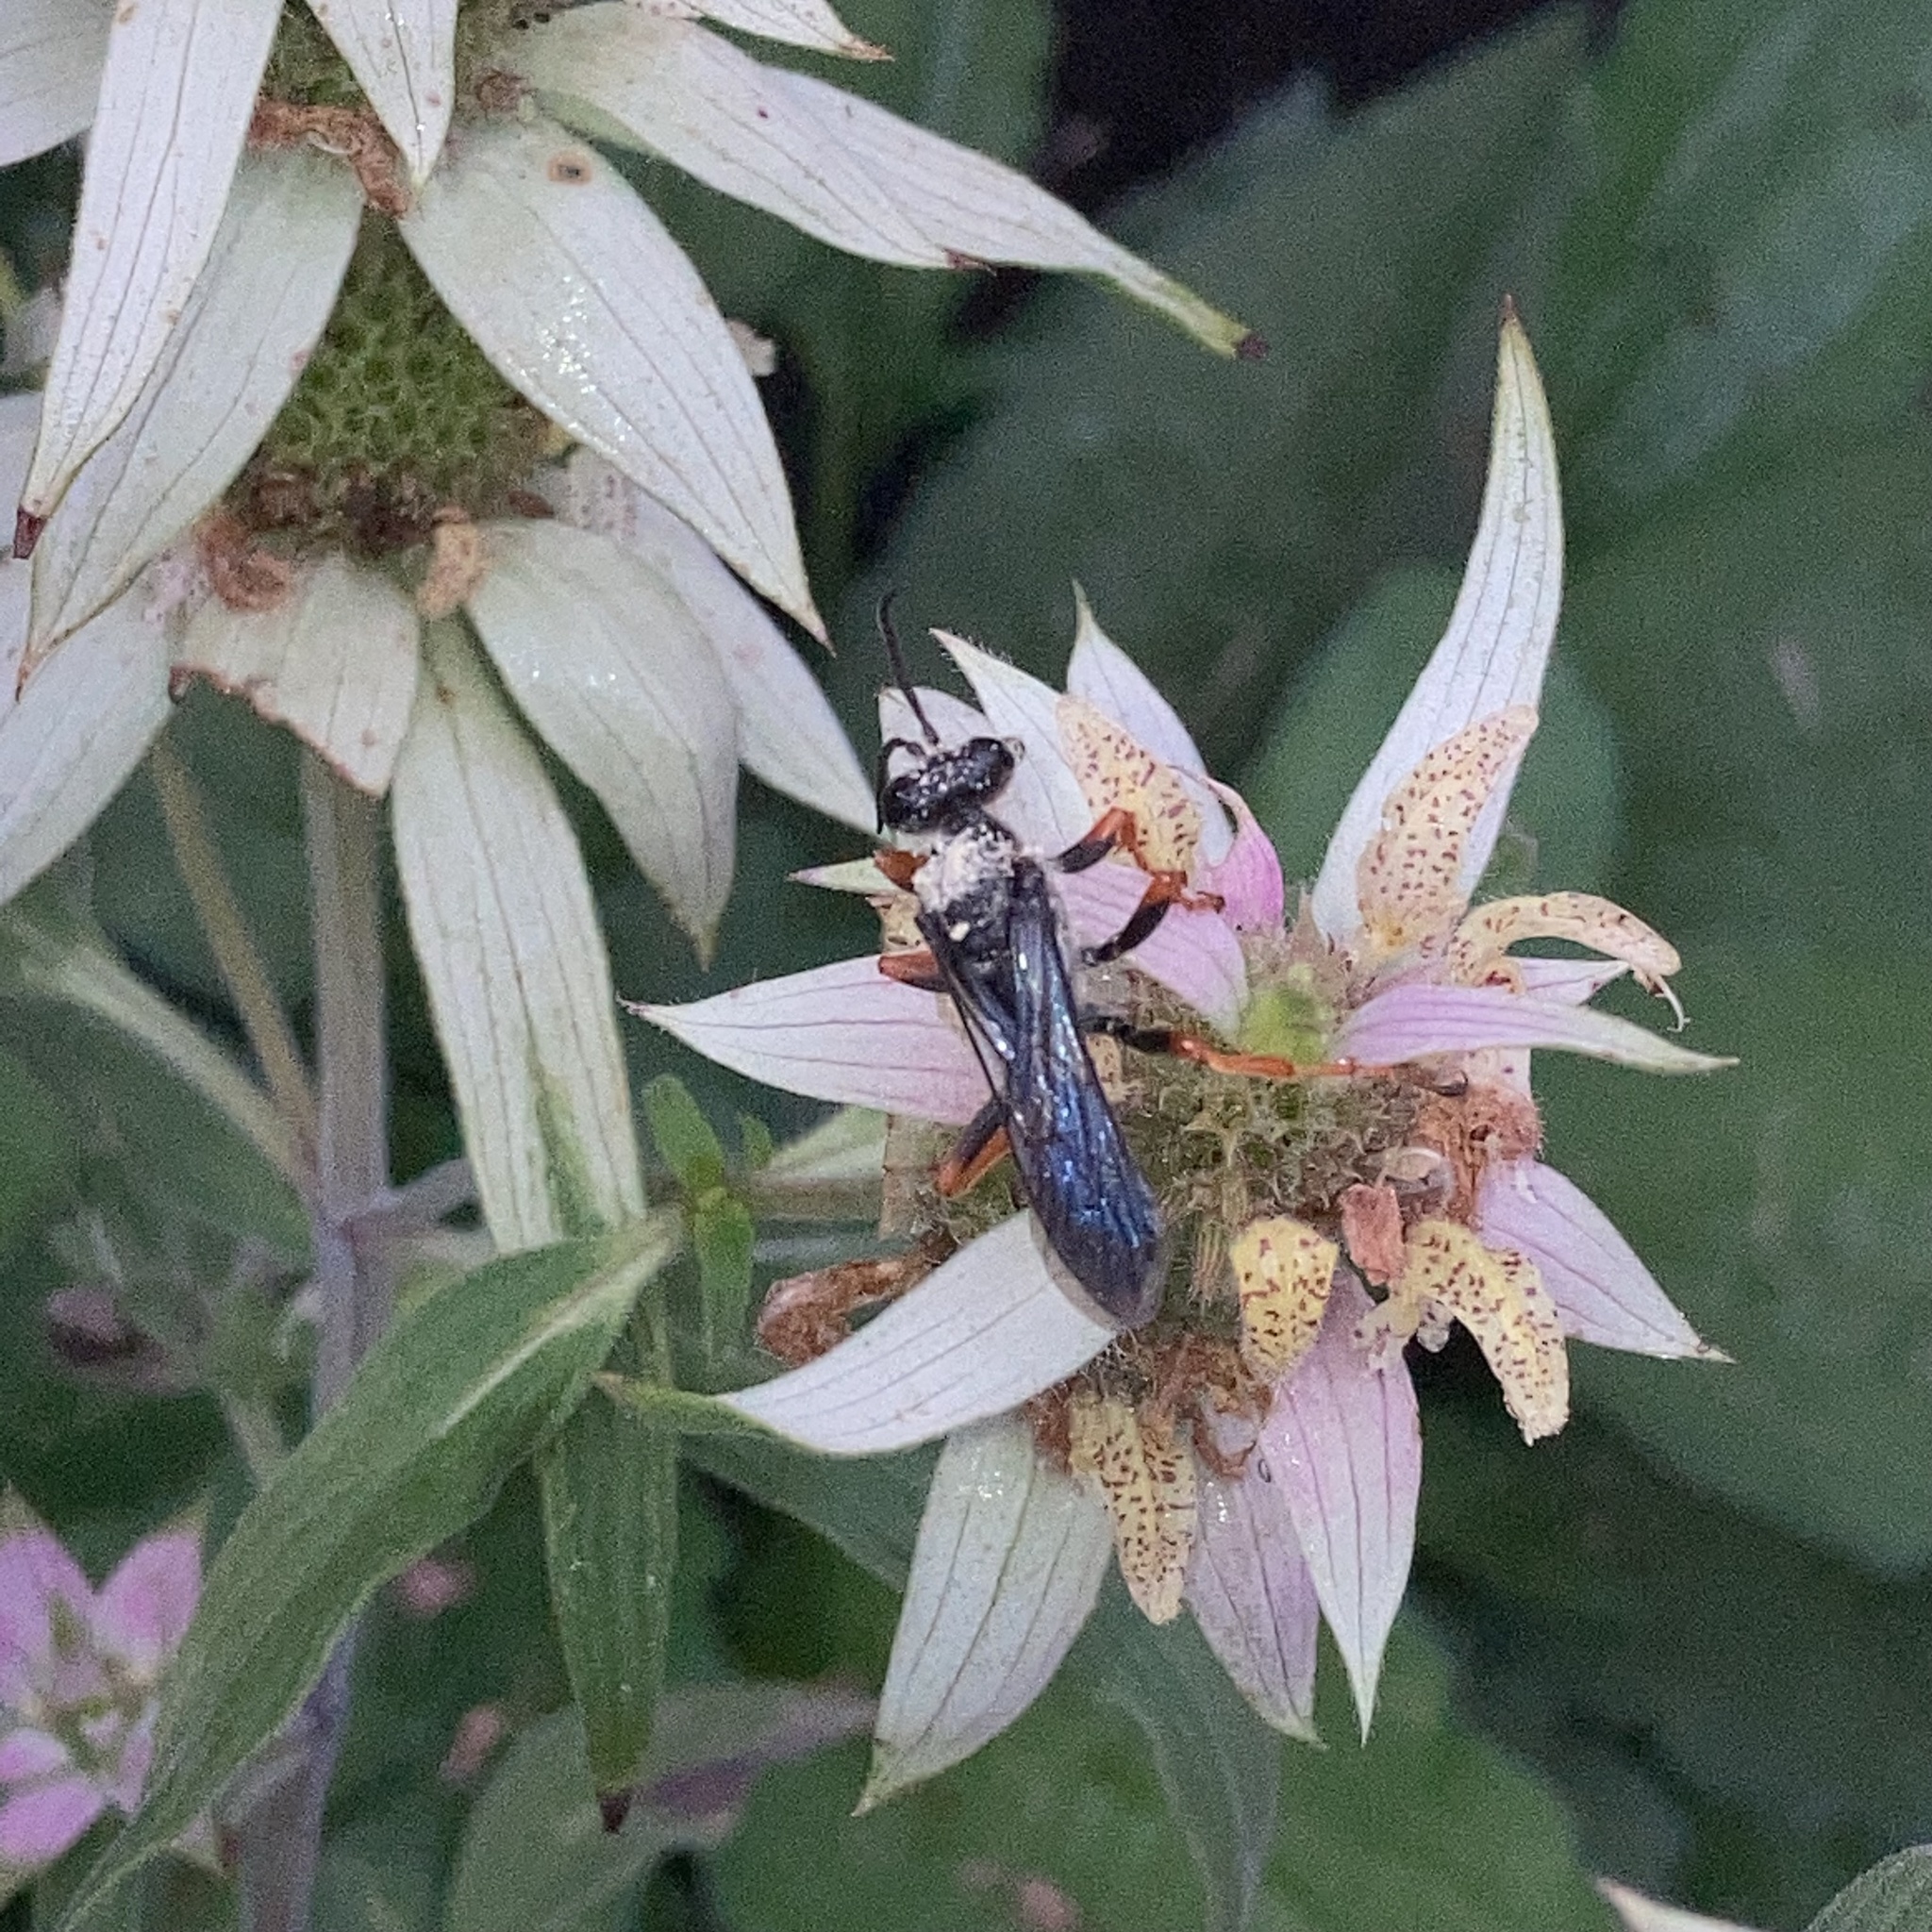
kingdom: Animalia
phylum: Arthropoda
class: Insecta
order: Hymenoptera
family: Sphecidae
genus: Sphex
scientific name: Sphex nudus
